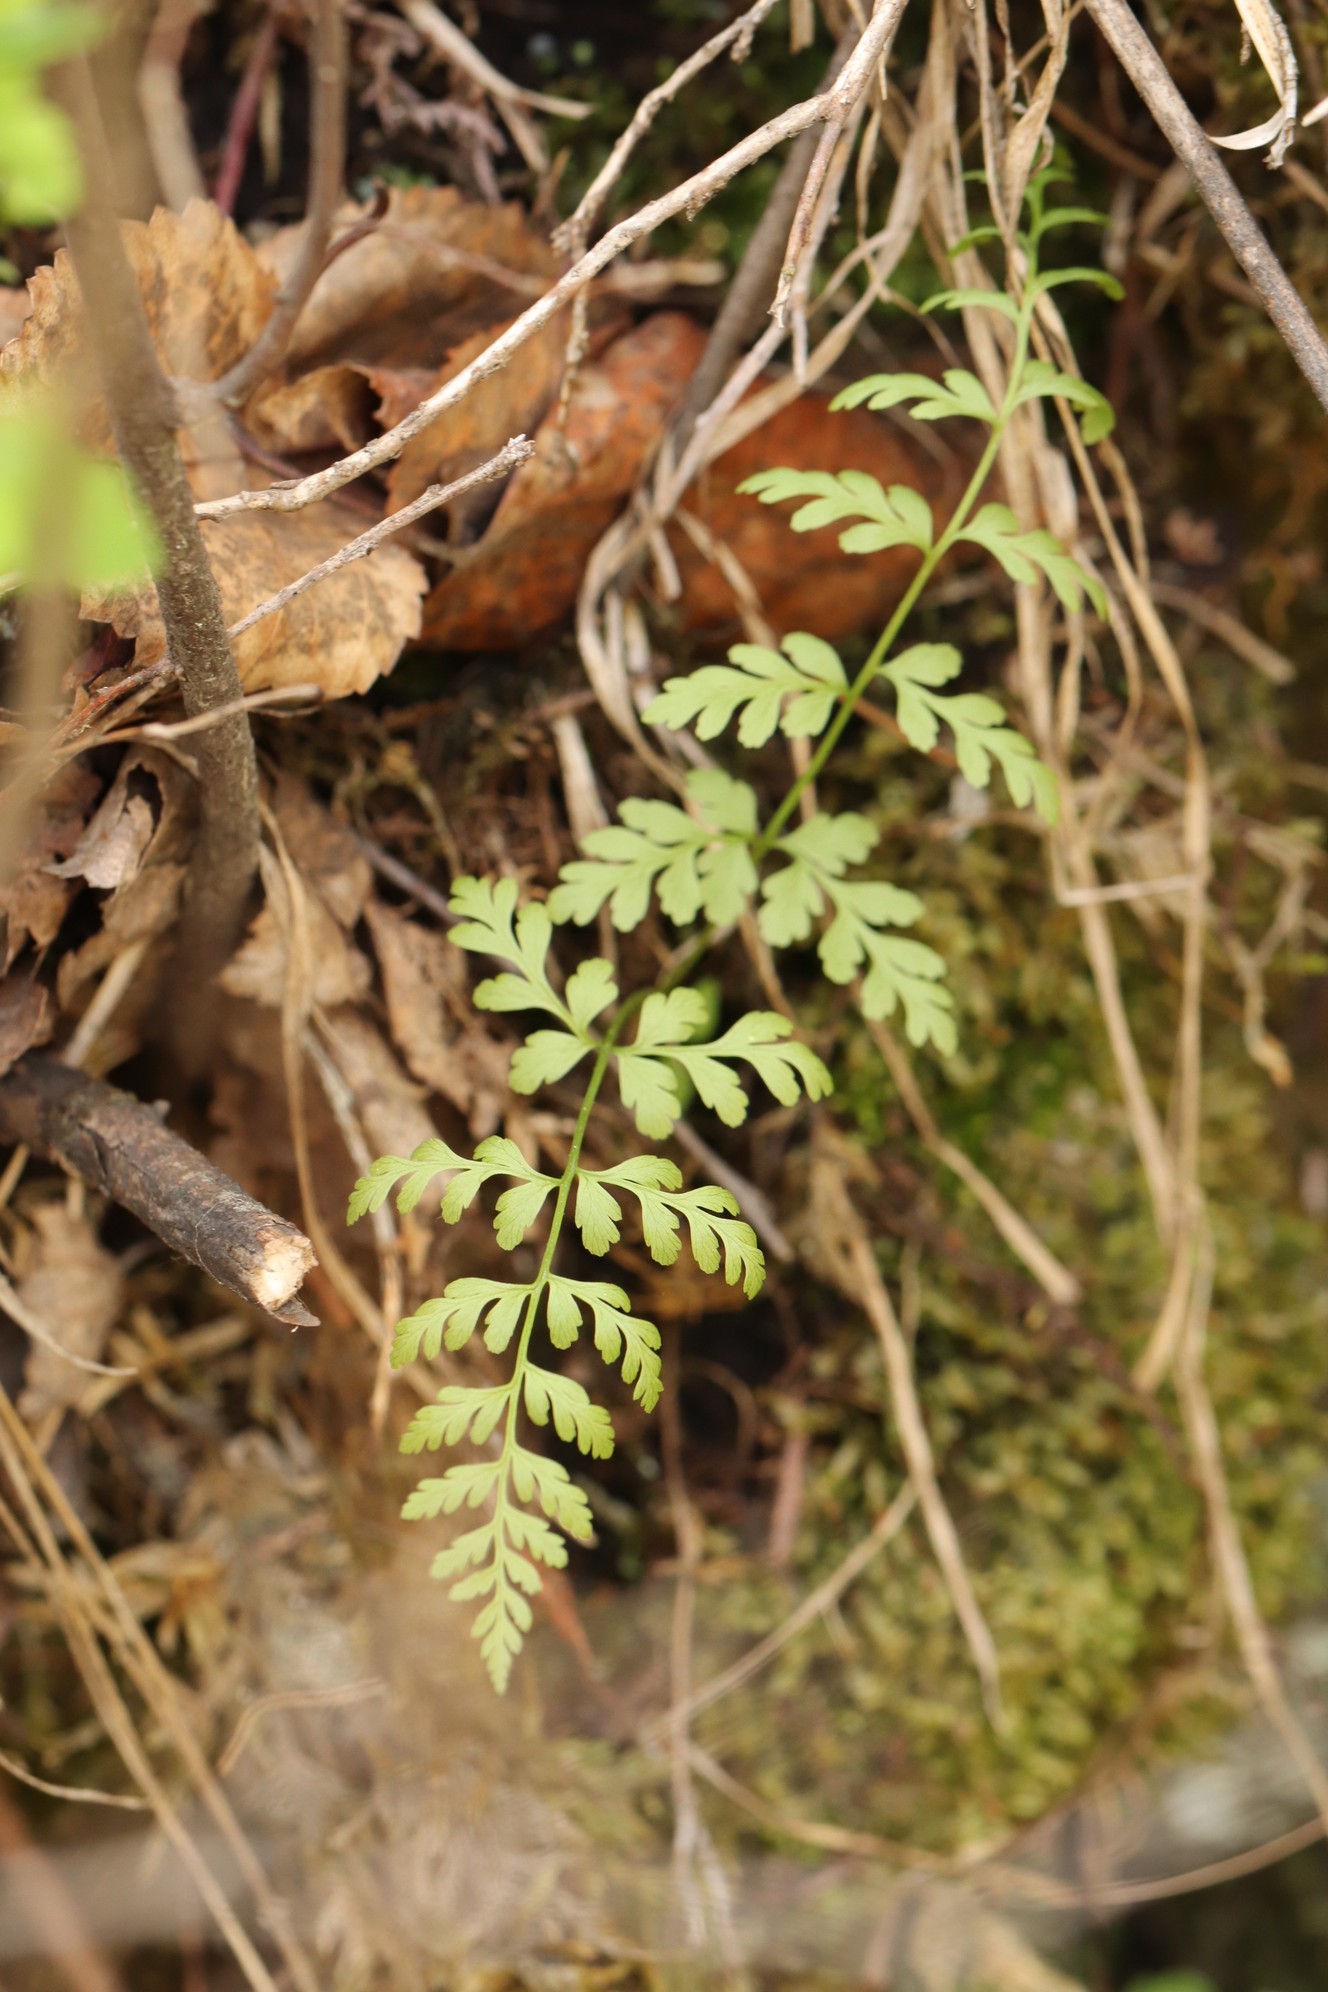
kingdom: Plantae
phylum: Tracheophyta
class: Polypodiopsida
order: Polypodiales
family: Cystopteridaceae
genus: Cystopteris
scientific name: Cystopteris fragilis
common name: Brittle bladder fern
